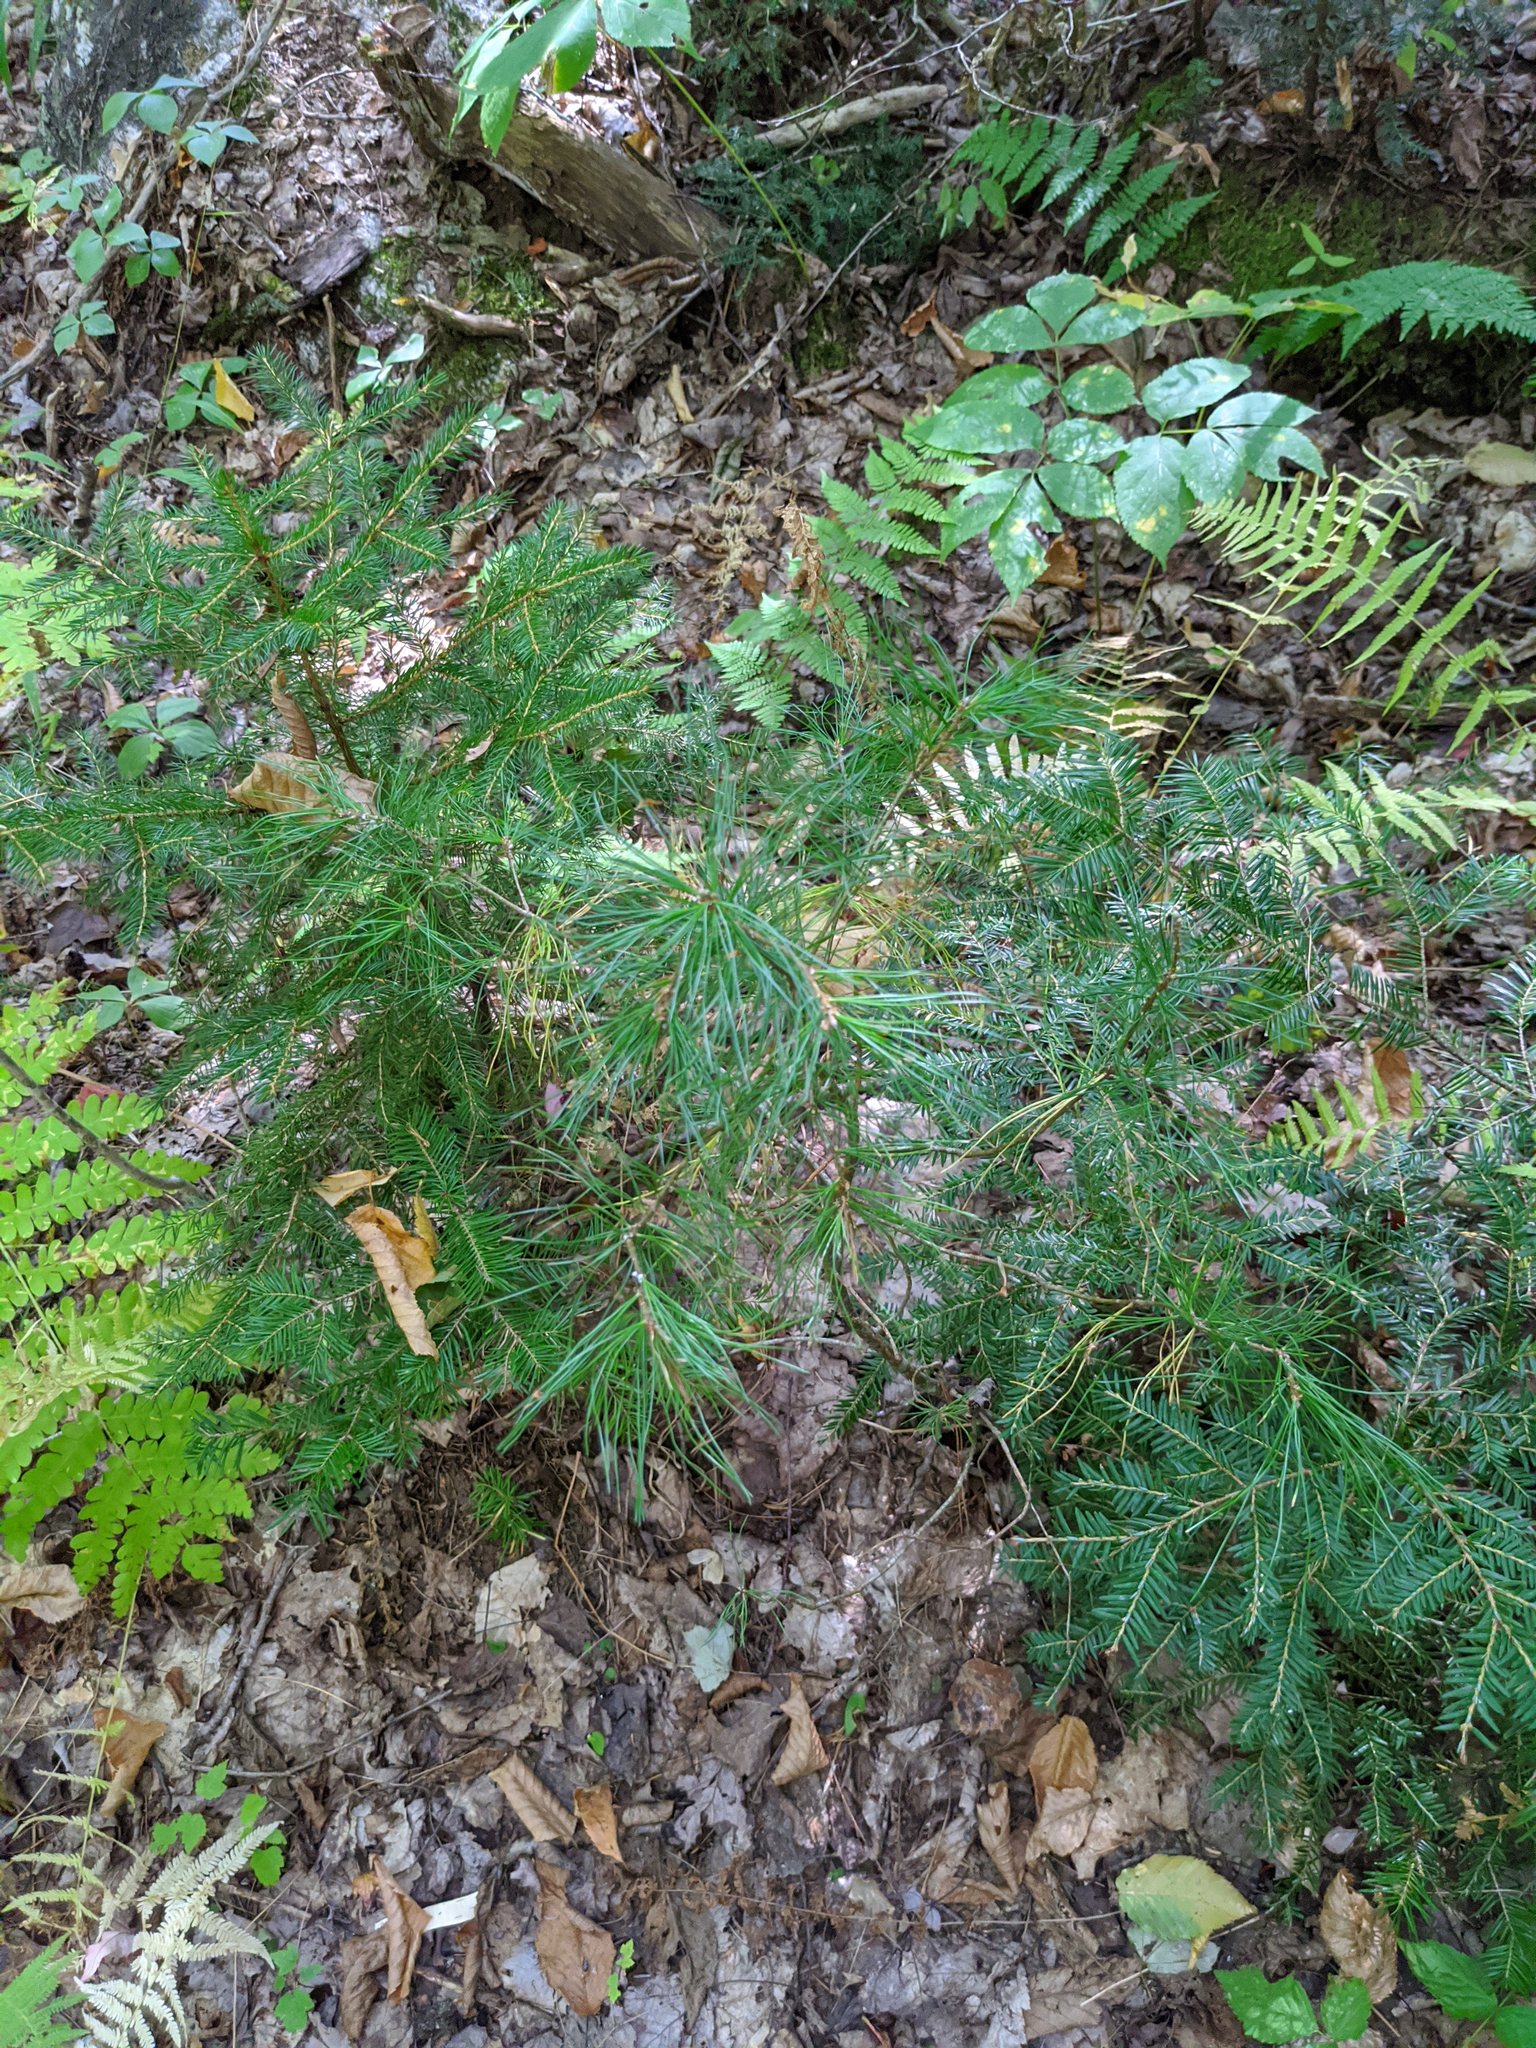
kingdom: Plantae
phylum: Tracheophyta
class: Pinopsida
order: Pinales
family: Pinaceae
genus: Pinus
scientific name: Pinus strobus
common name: Weymouth pine
